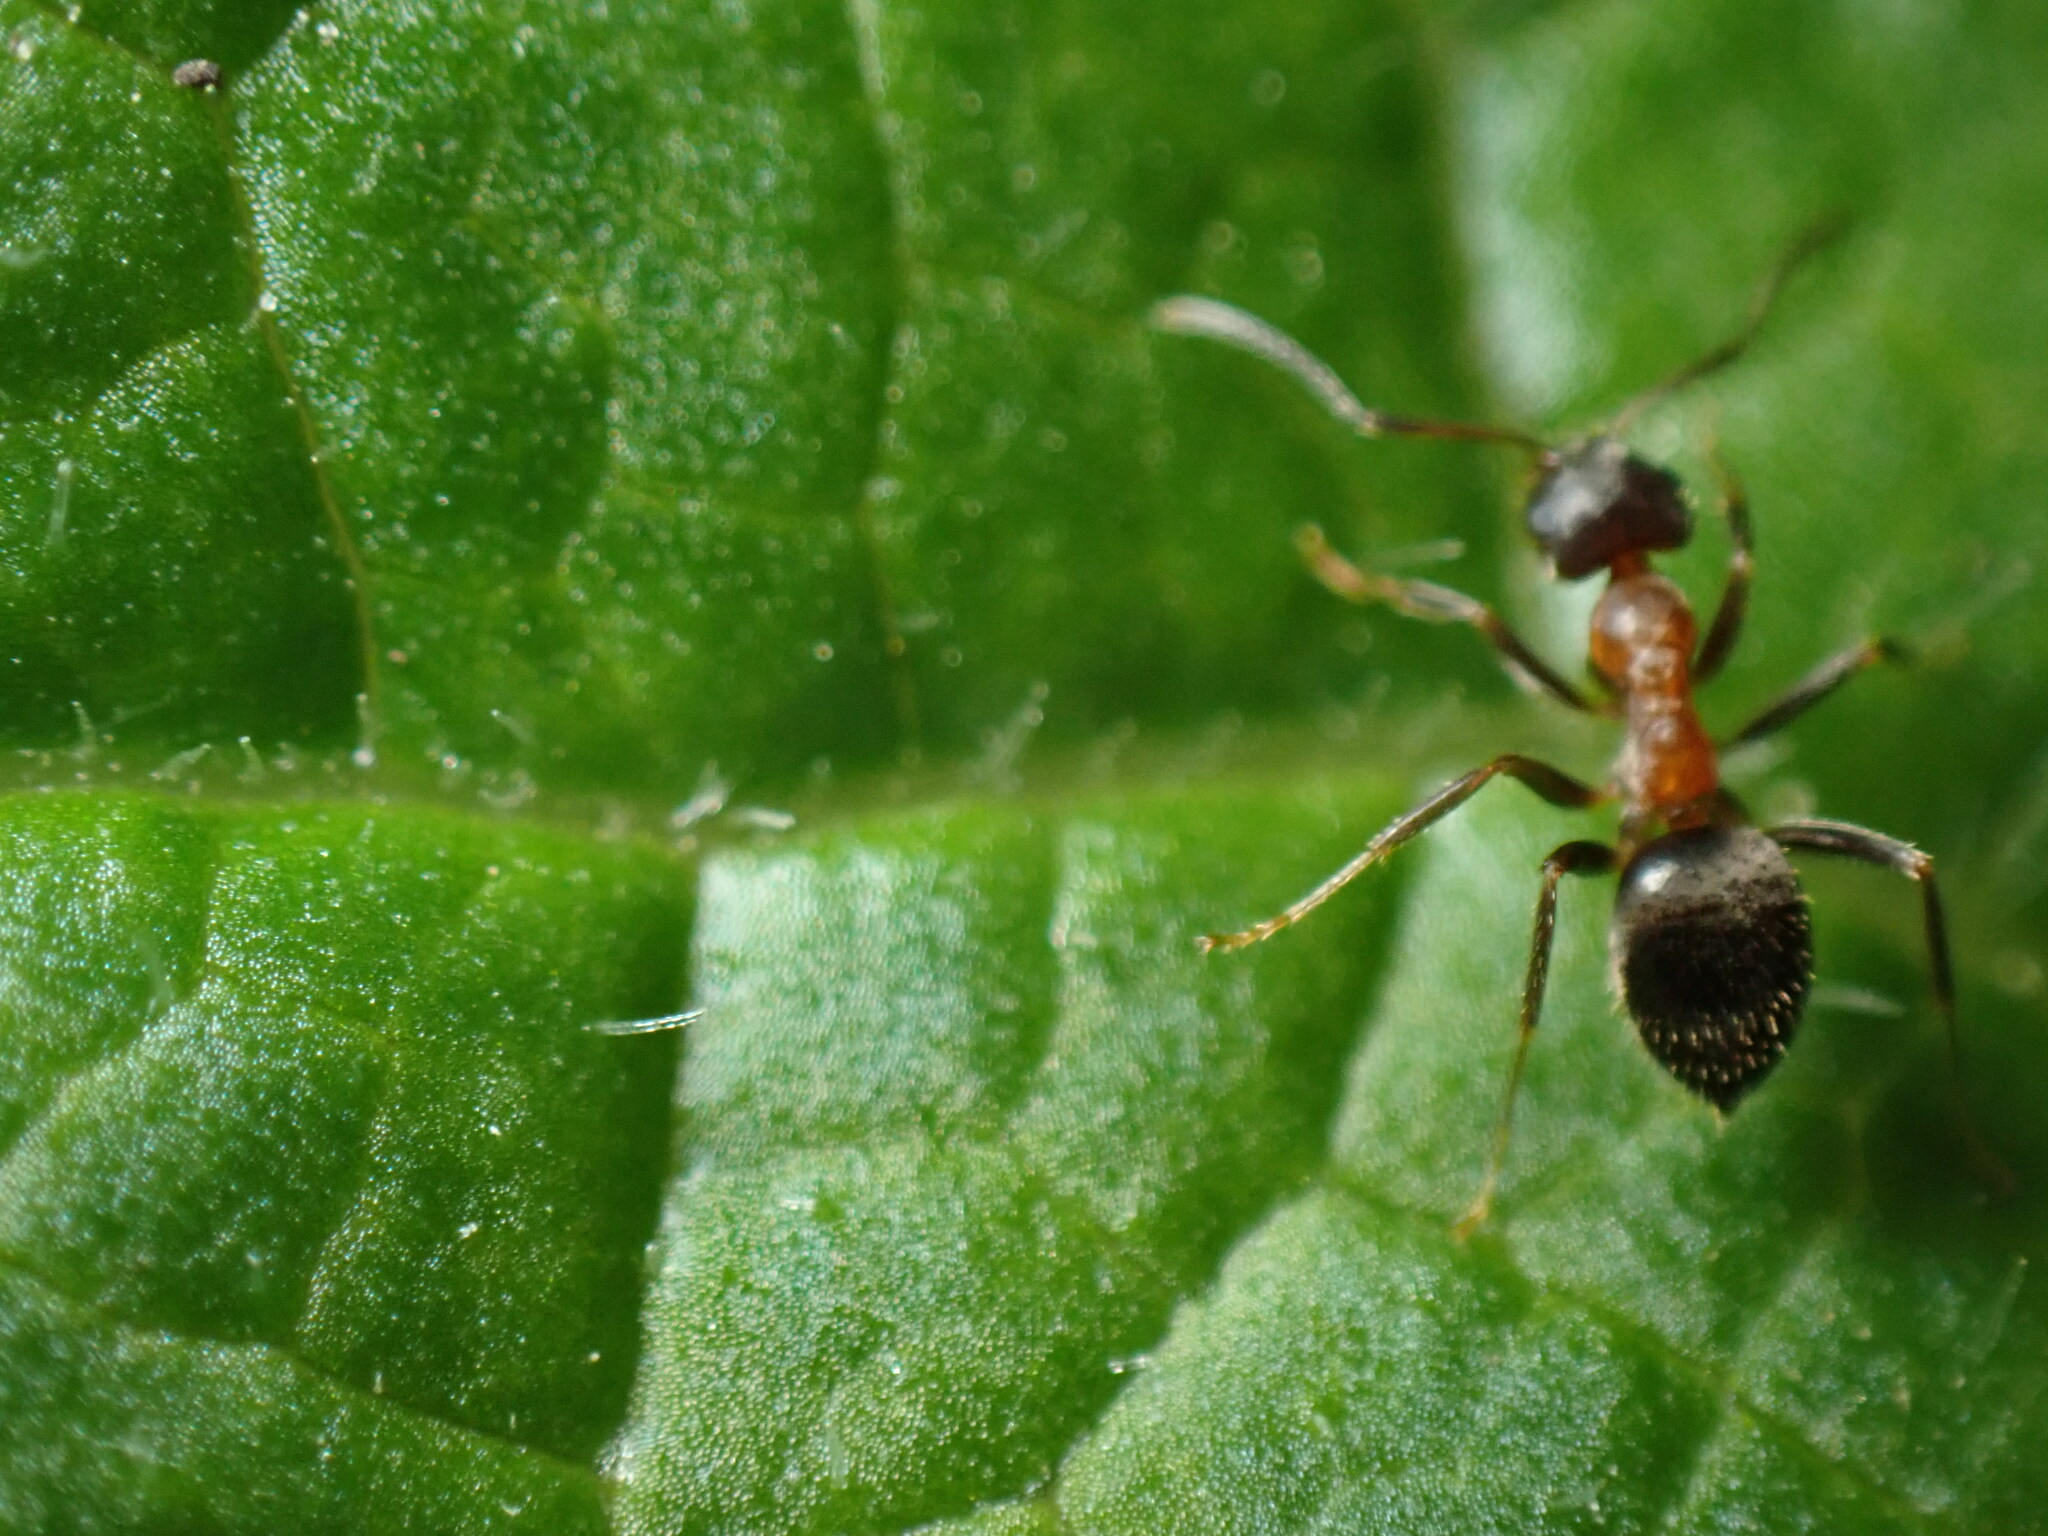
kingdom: Animalia
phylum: Arthropoda
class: Insecta
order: Hymenoptera
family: Formicidae
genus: Lasius
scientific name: Lasius emarginatus
